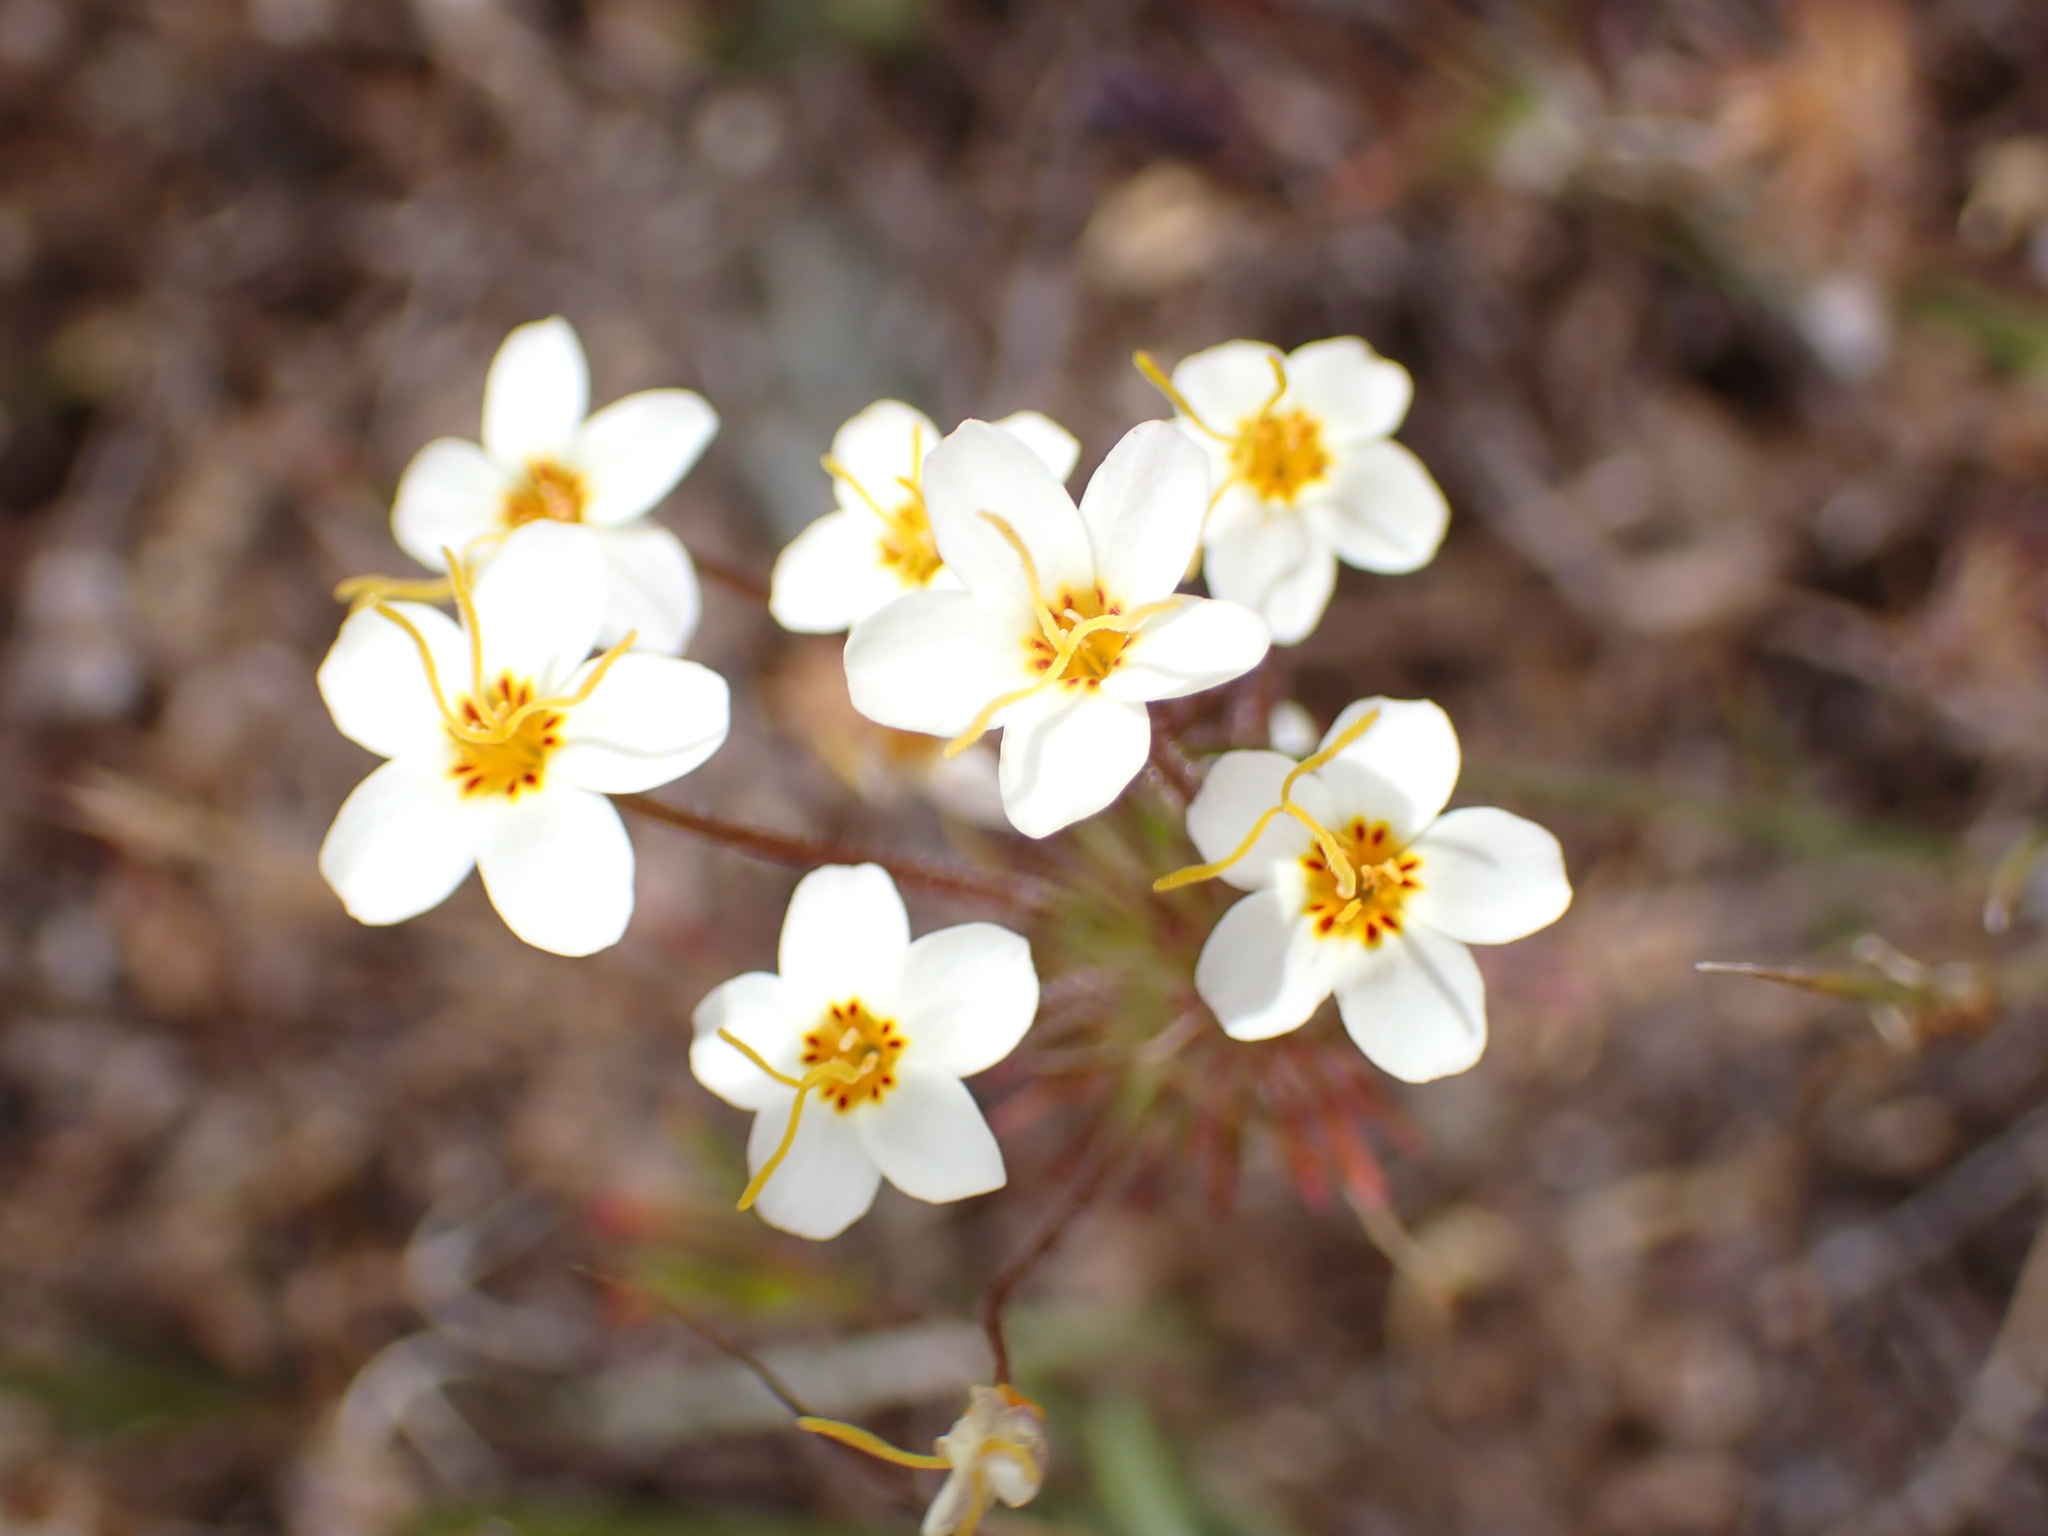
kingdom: Plantae
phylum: Tracheophyta
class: Magnoliopsida
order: Ericales
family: Polemoniaceae
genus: Leptosiphon
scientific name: Leptosiphon parviflorus
